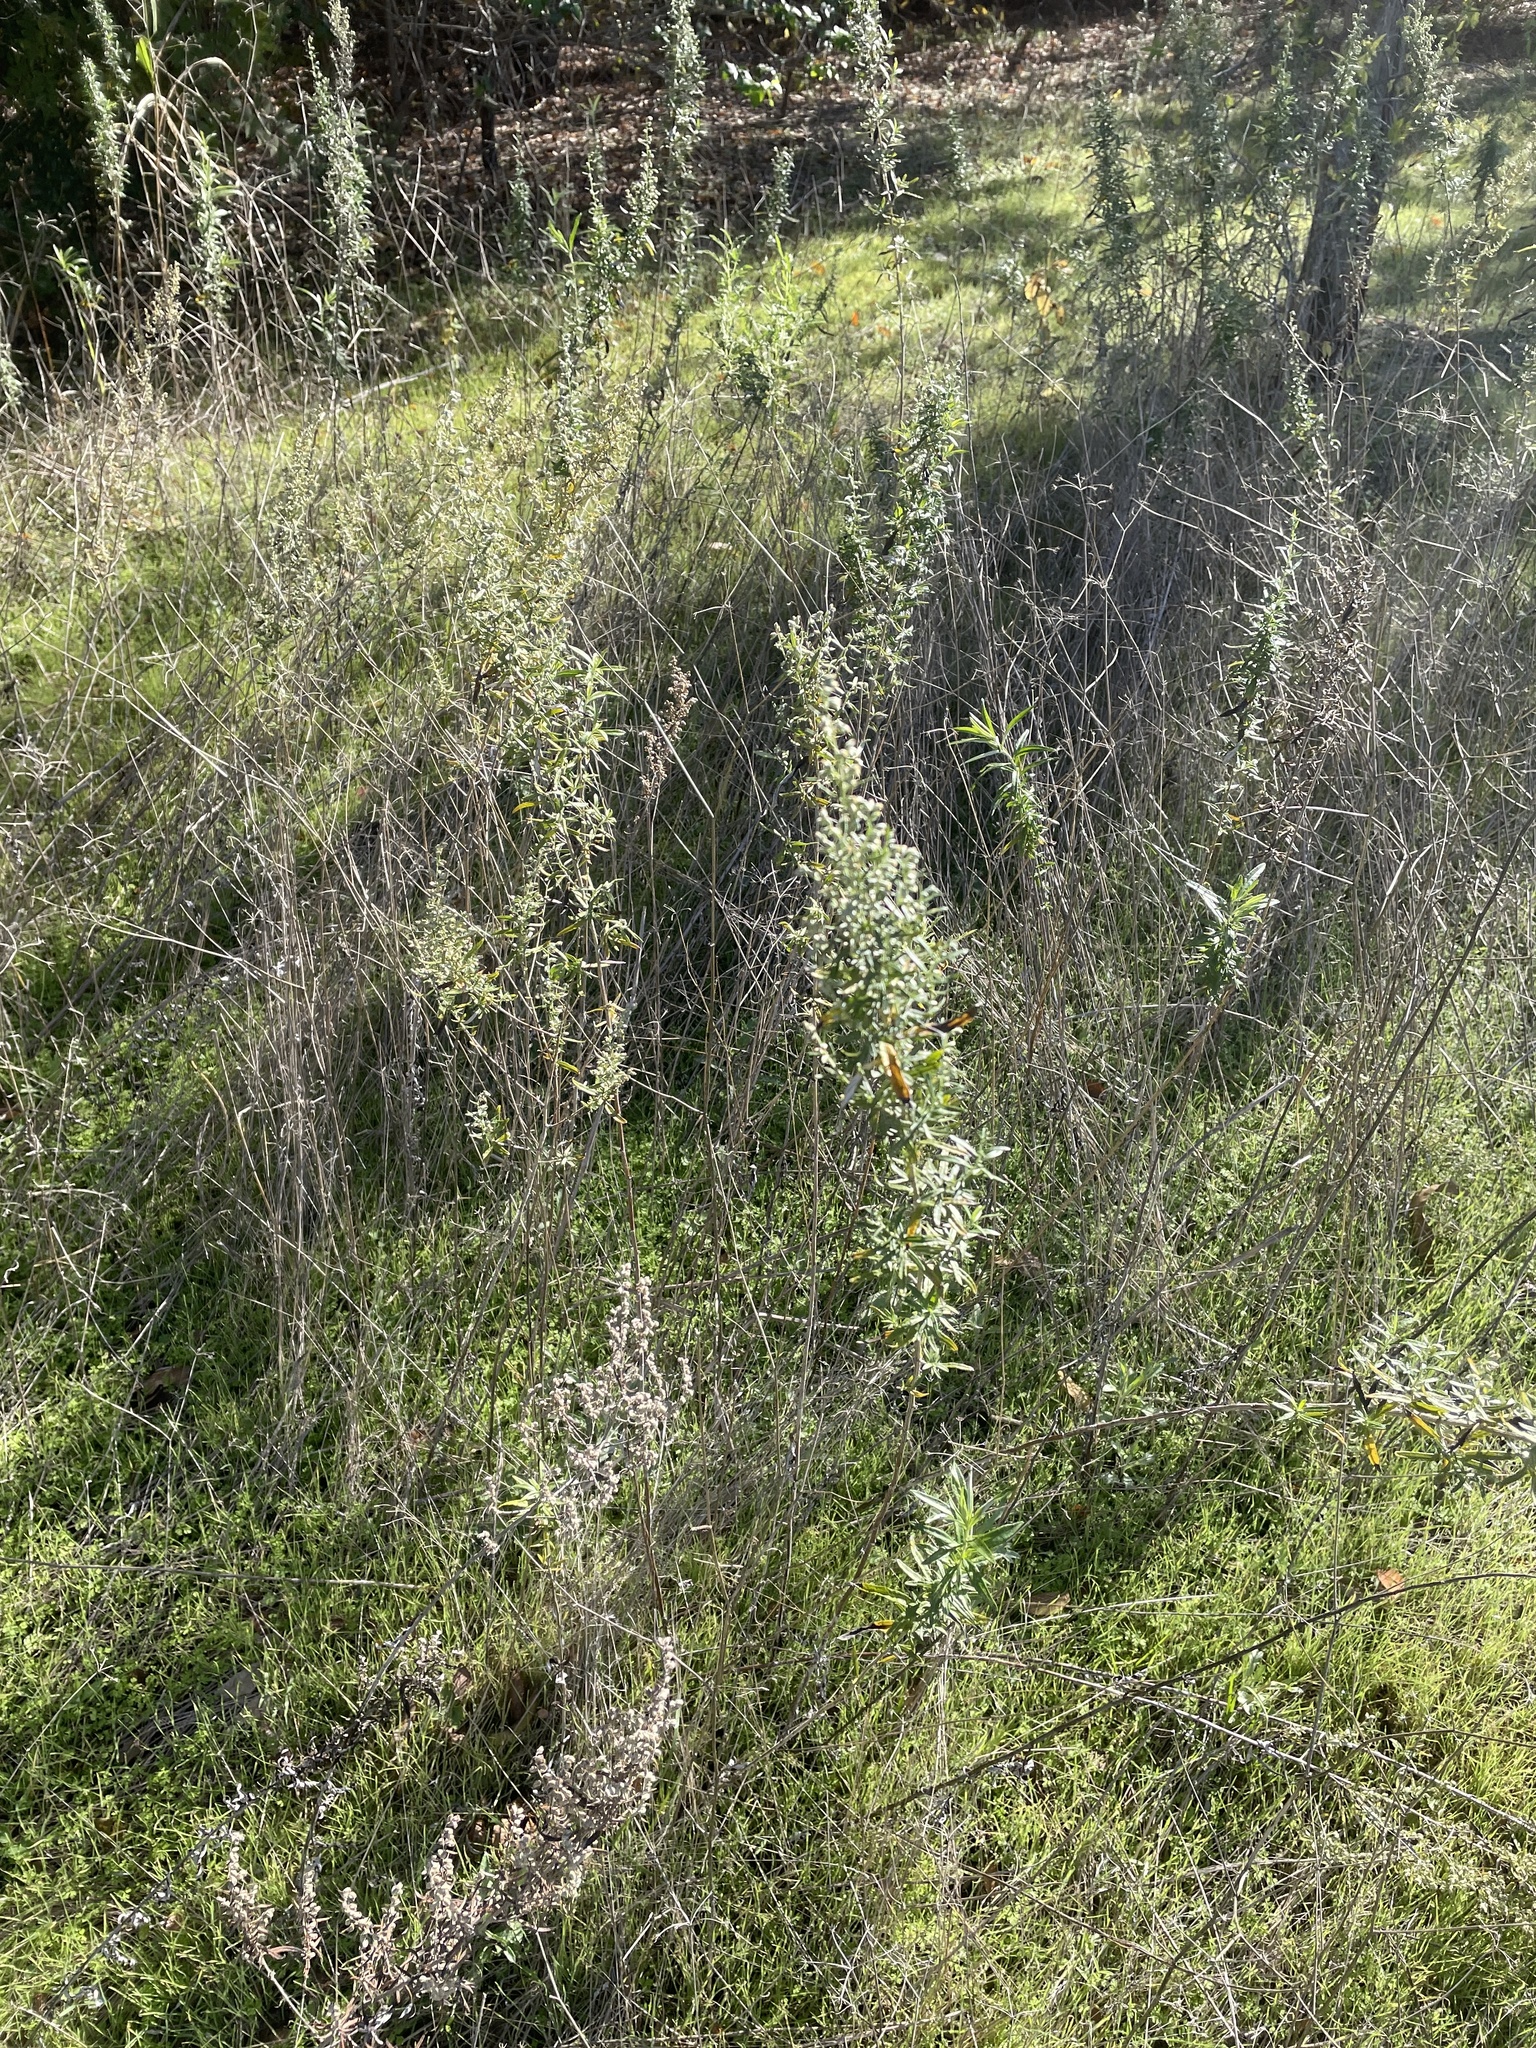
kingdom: Plantae
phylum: Tracheophyta
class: Magnoliopsida
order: Asterales
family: Asteraceae
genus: Artemisia
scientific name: Artemisia ludoviciana
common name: Western mugwort
